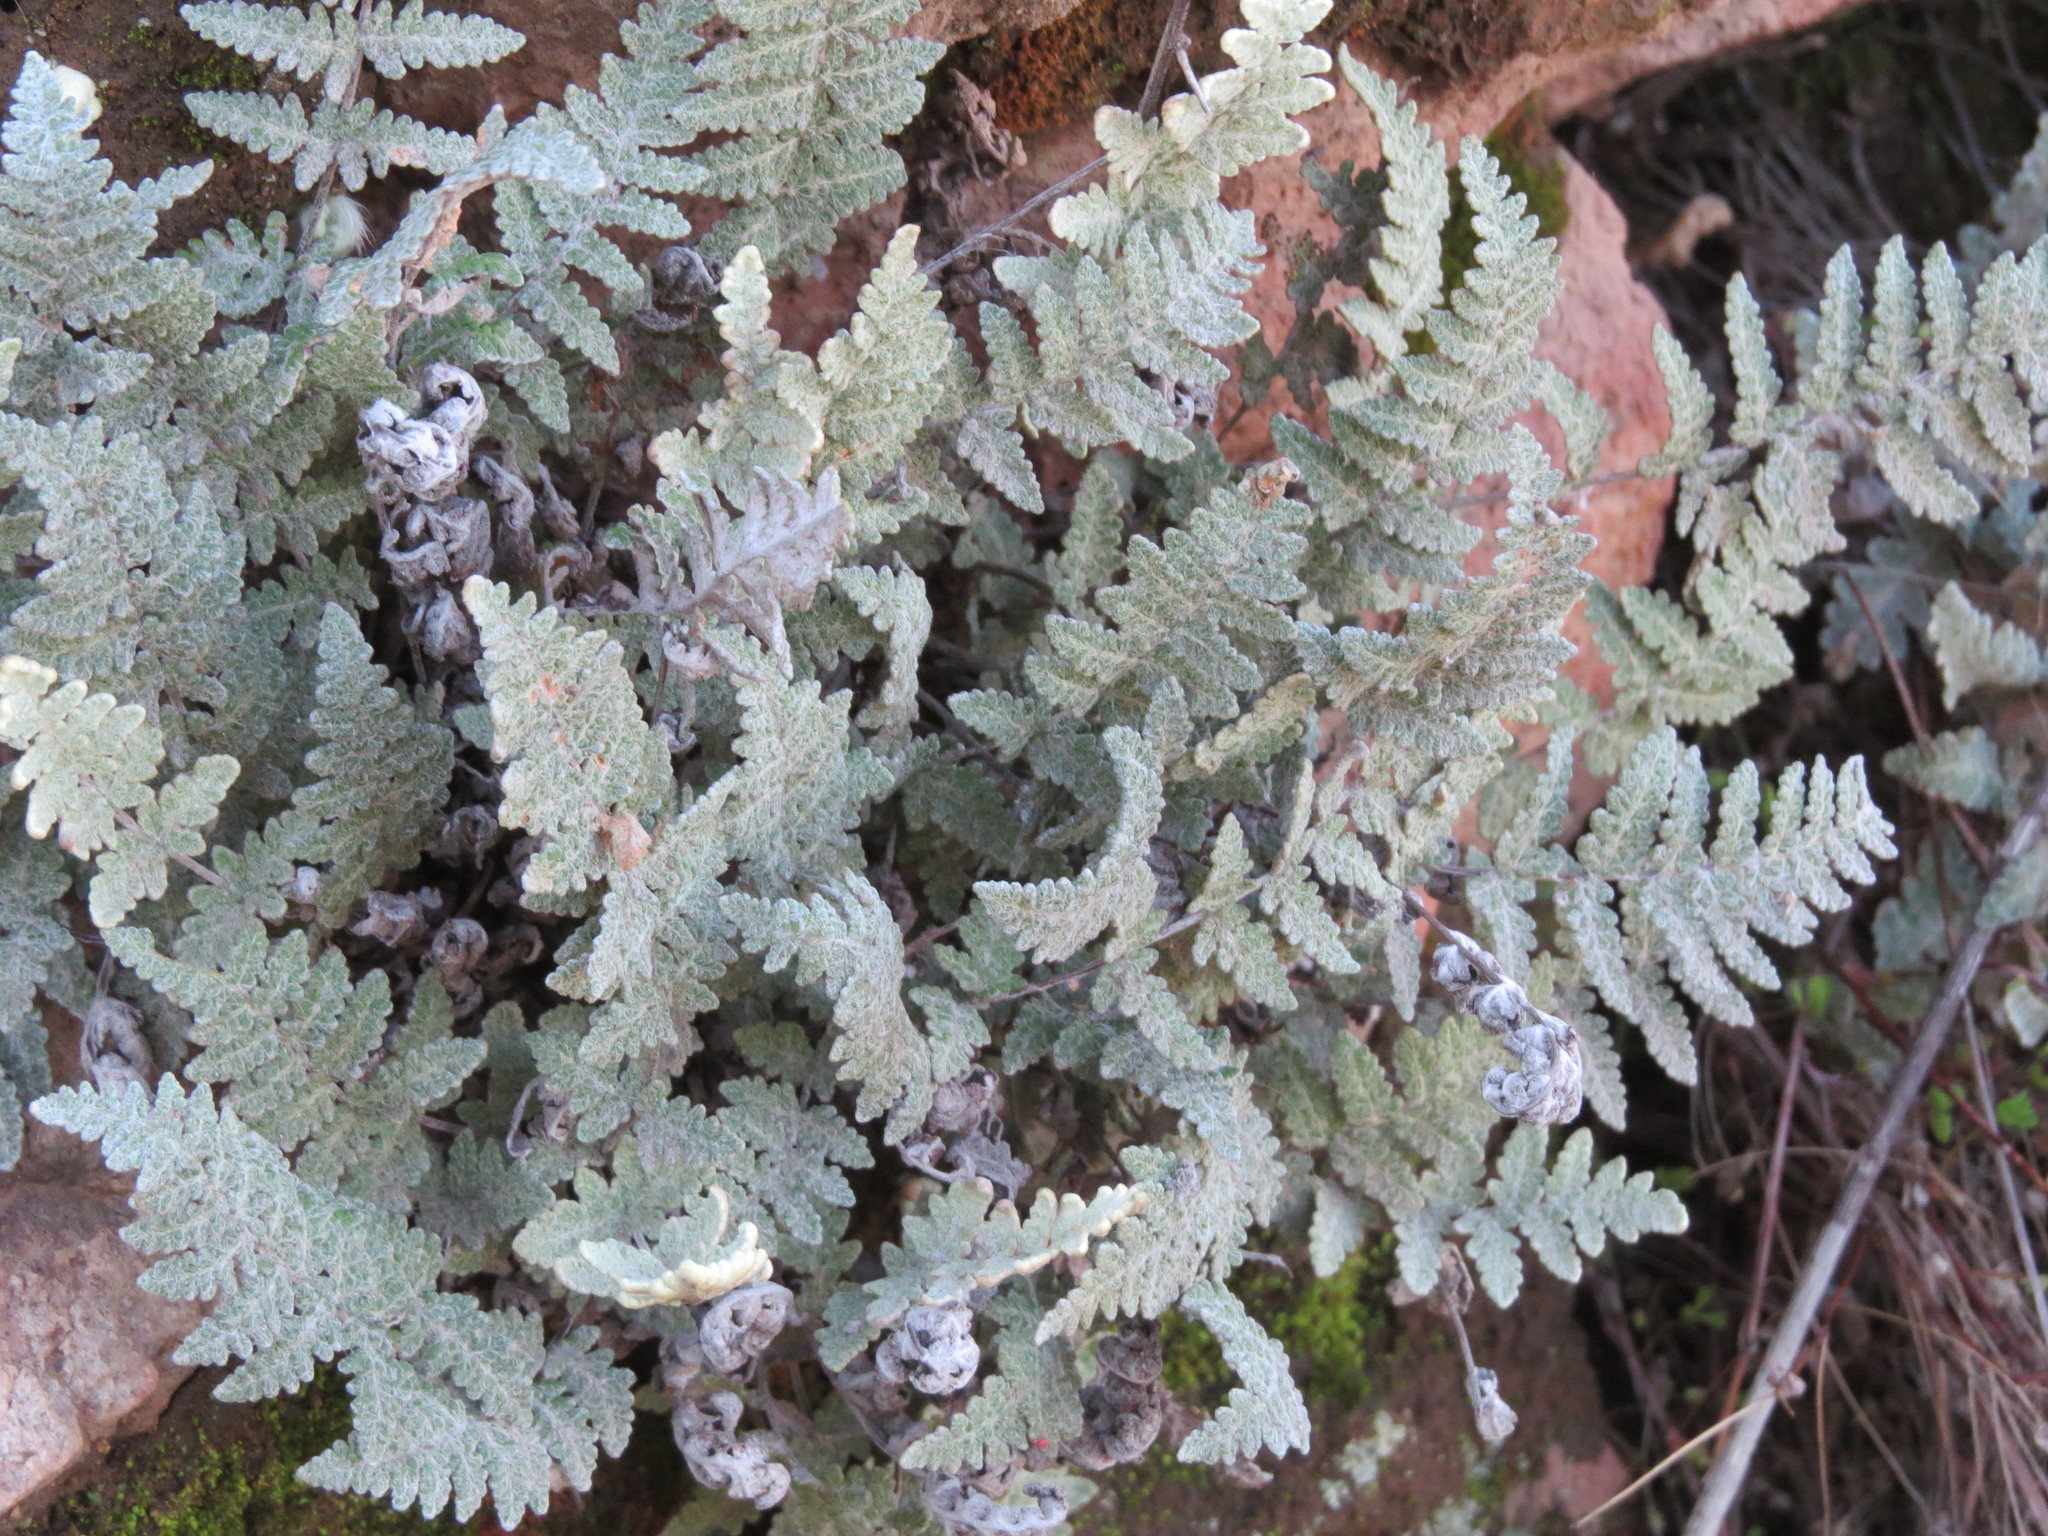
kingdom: Plantae
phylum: Tracheophyta
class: Polypodiopsida
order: Polypodiales
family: Pteridaceae
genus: Myriopteris
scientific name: Myriopteris newberryi
